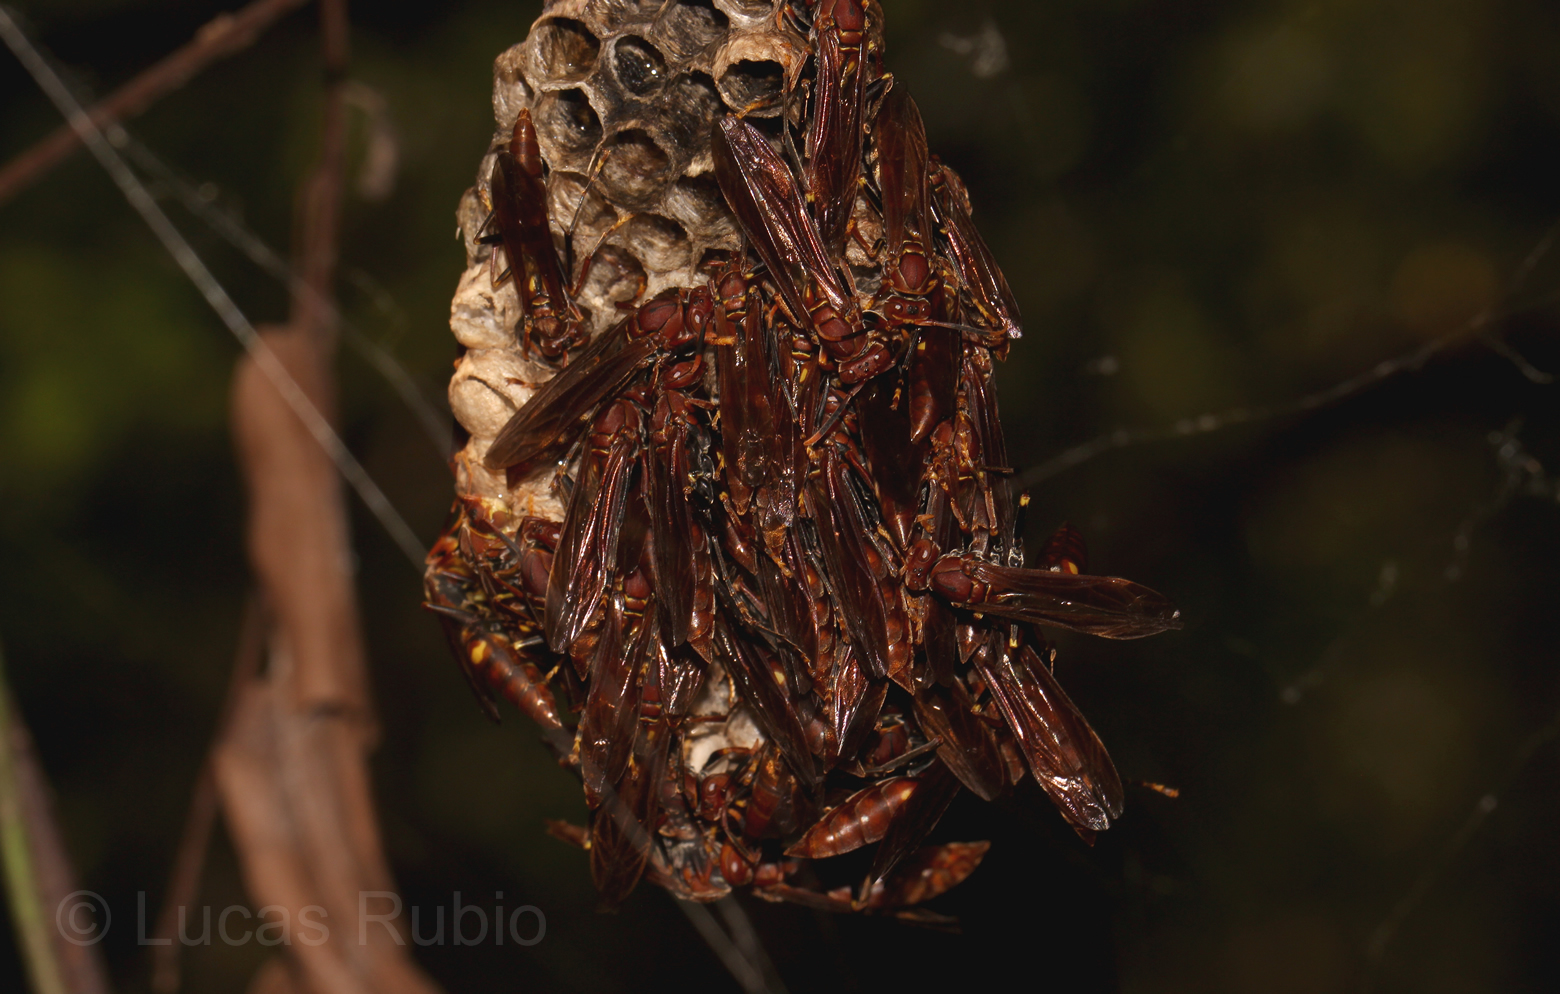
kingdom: Animalia
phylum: Arthropoda
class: Insecta
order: Hymenoptera
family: Eumenidae
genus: Polistes
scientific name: Polistes simillimus
